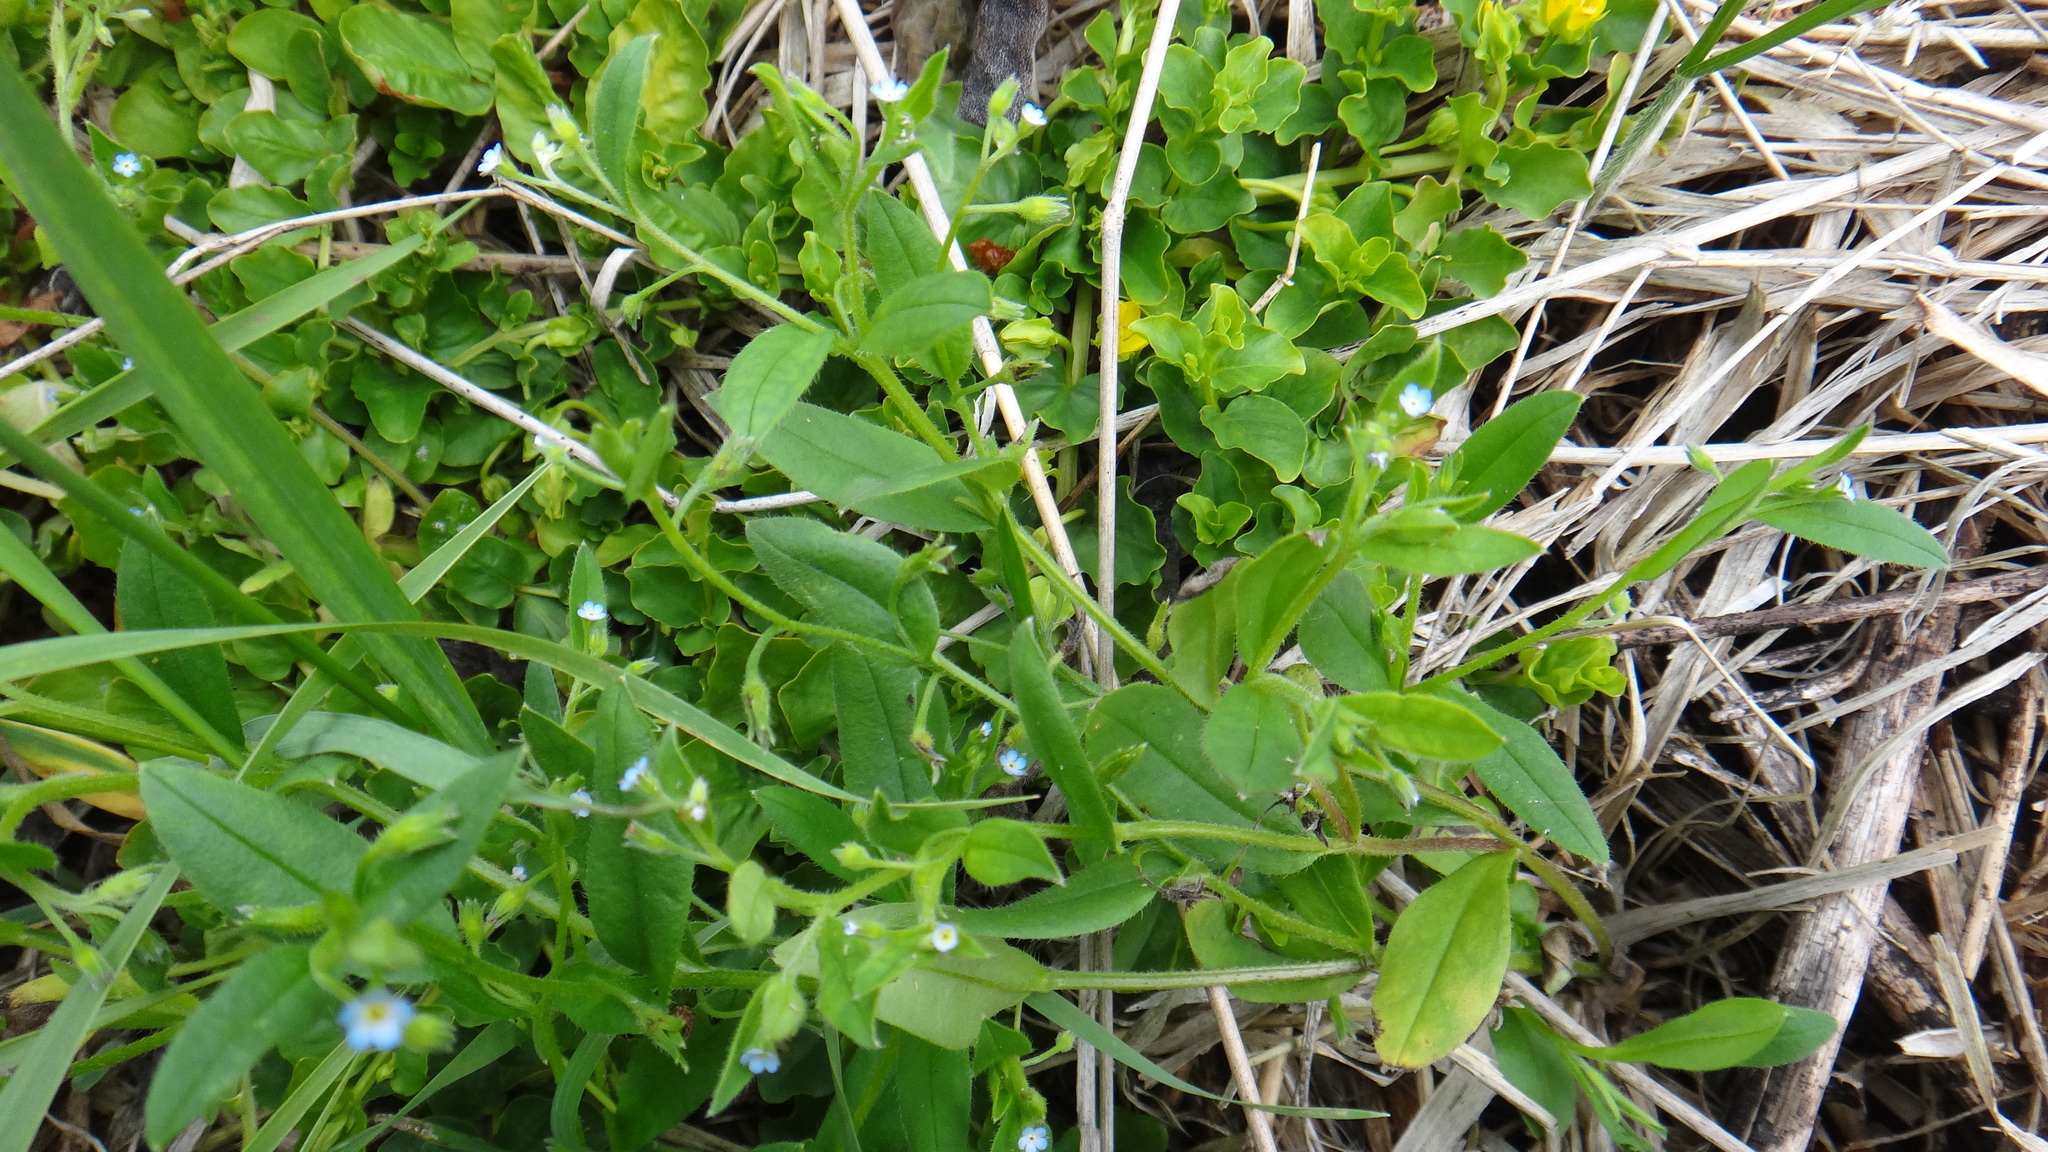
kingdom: Plantae
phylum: Tracheophyta
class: Magnoliopsida
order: Boraginales
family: Boraginaceae
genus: Myosotis
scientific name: Myosotis sparsiflora
